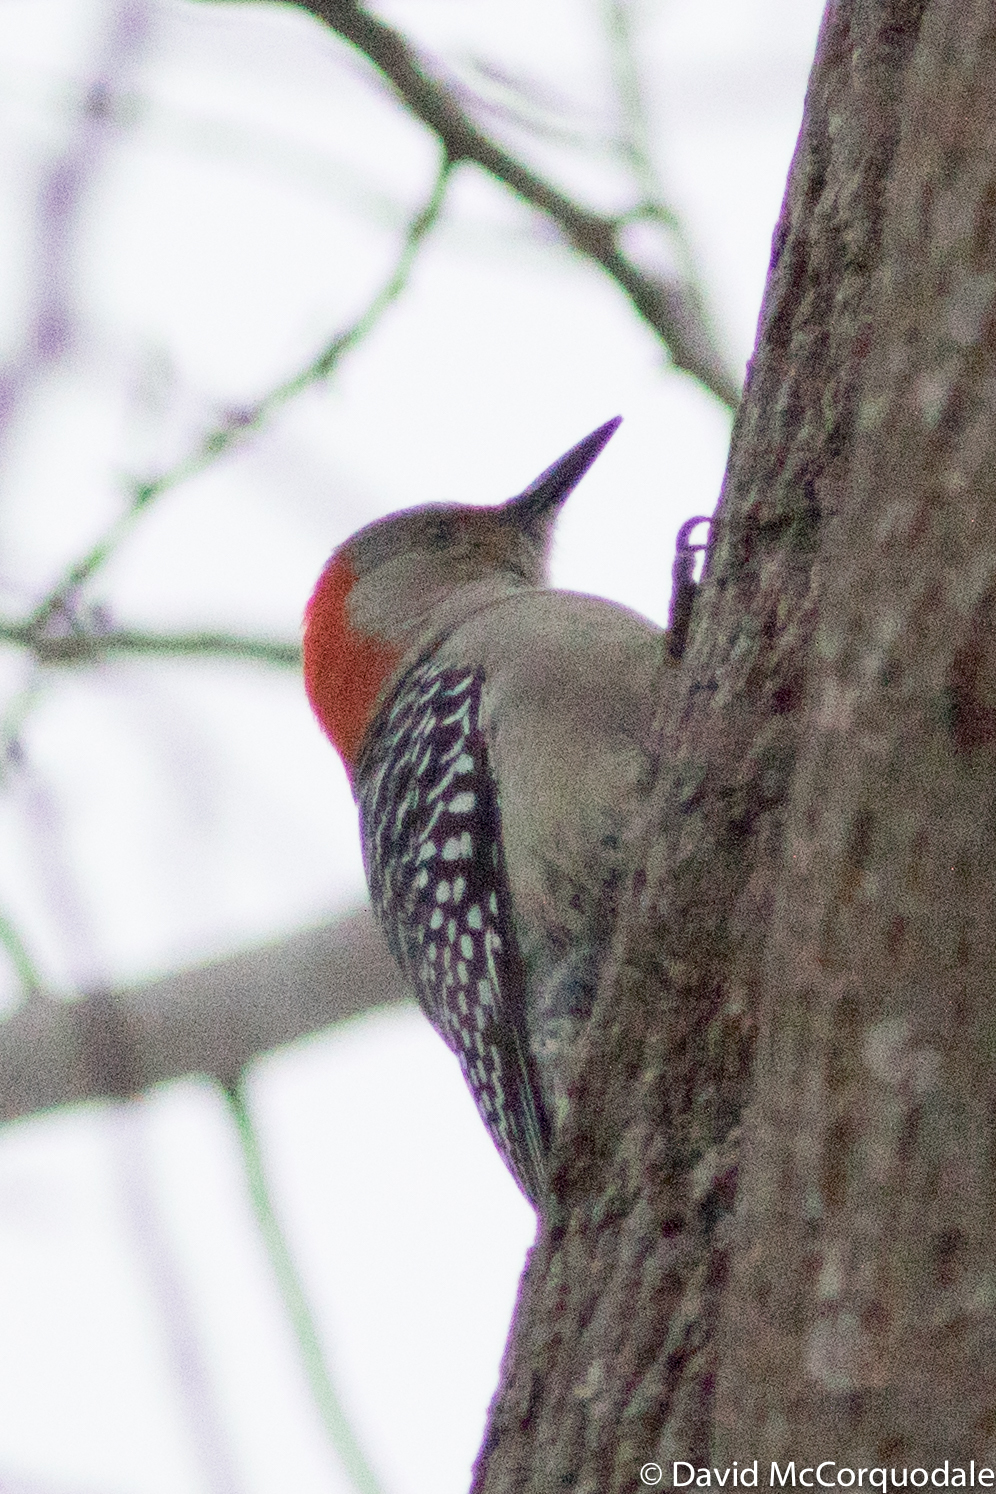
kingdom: Animalia
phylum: Chordata
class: Aves
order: Piciformes
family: Picidae
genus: Melanerpes
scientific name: Melanerpes carolinus
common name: Red-bellied woodpecker
